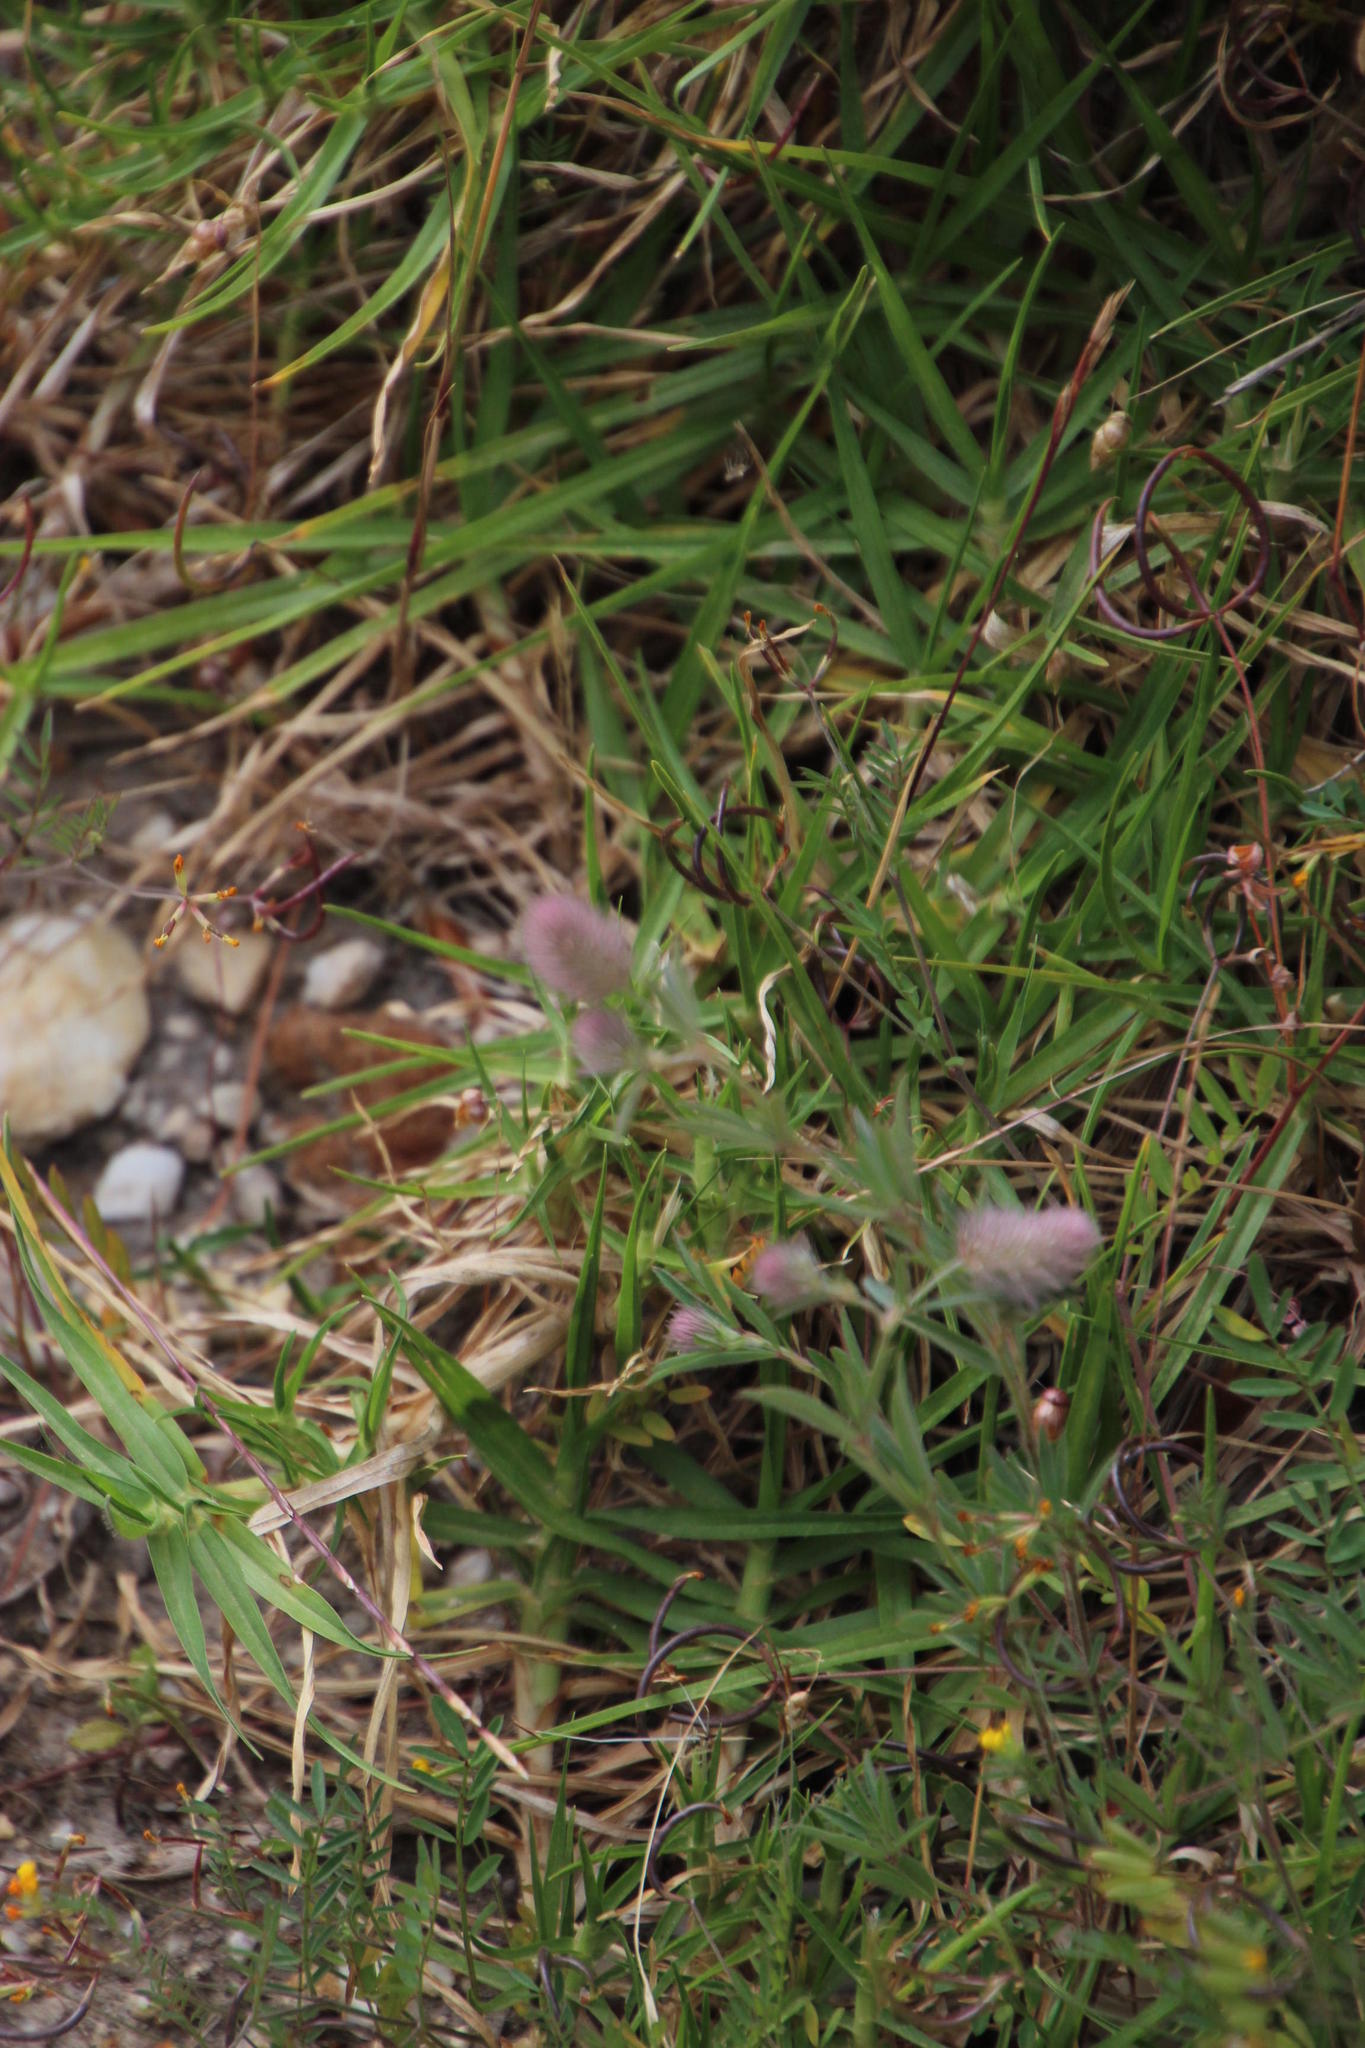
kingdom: Plantae
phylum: Tracheophyta
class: Magnoliopsida
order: Fabales
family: Fabaceae
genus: Trifolium
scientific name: Trifolium arvense
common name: Hare's-foot clover
